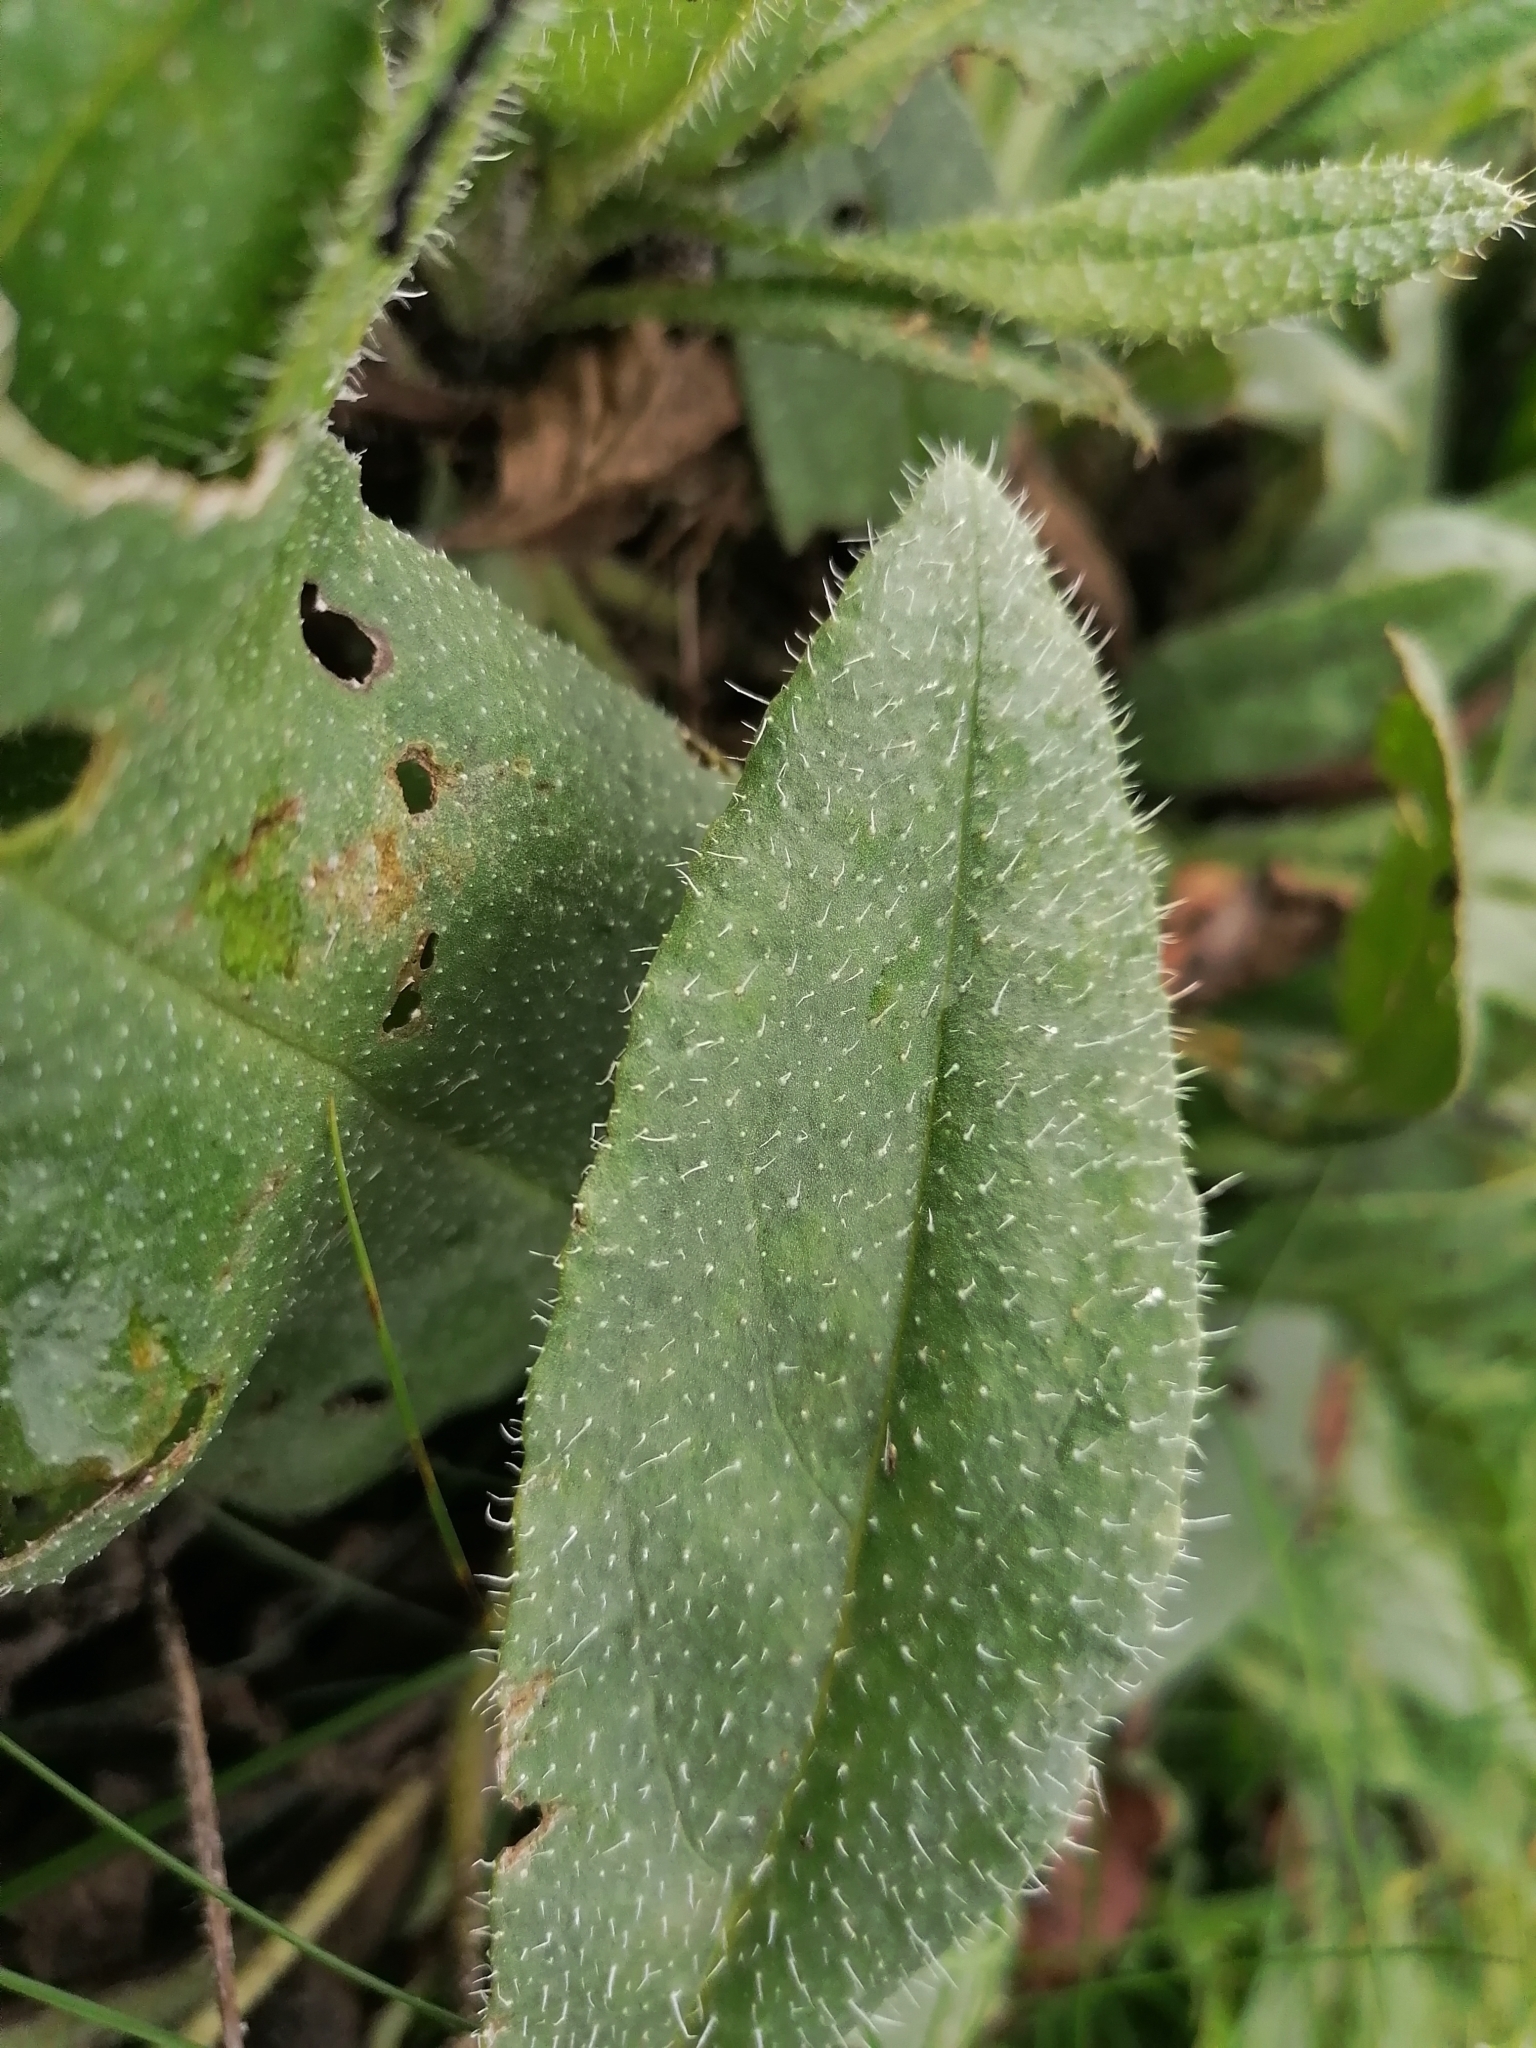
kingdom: Plantae
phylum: Tracheophyta
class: Magnoliopsida
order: Boraginales
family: Boraginaceae
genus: Anchusa
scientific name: Anchusa officinalis
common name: Alkanet
